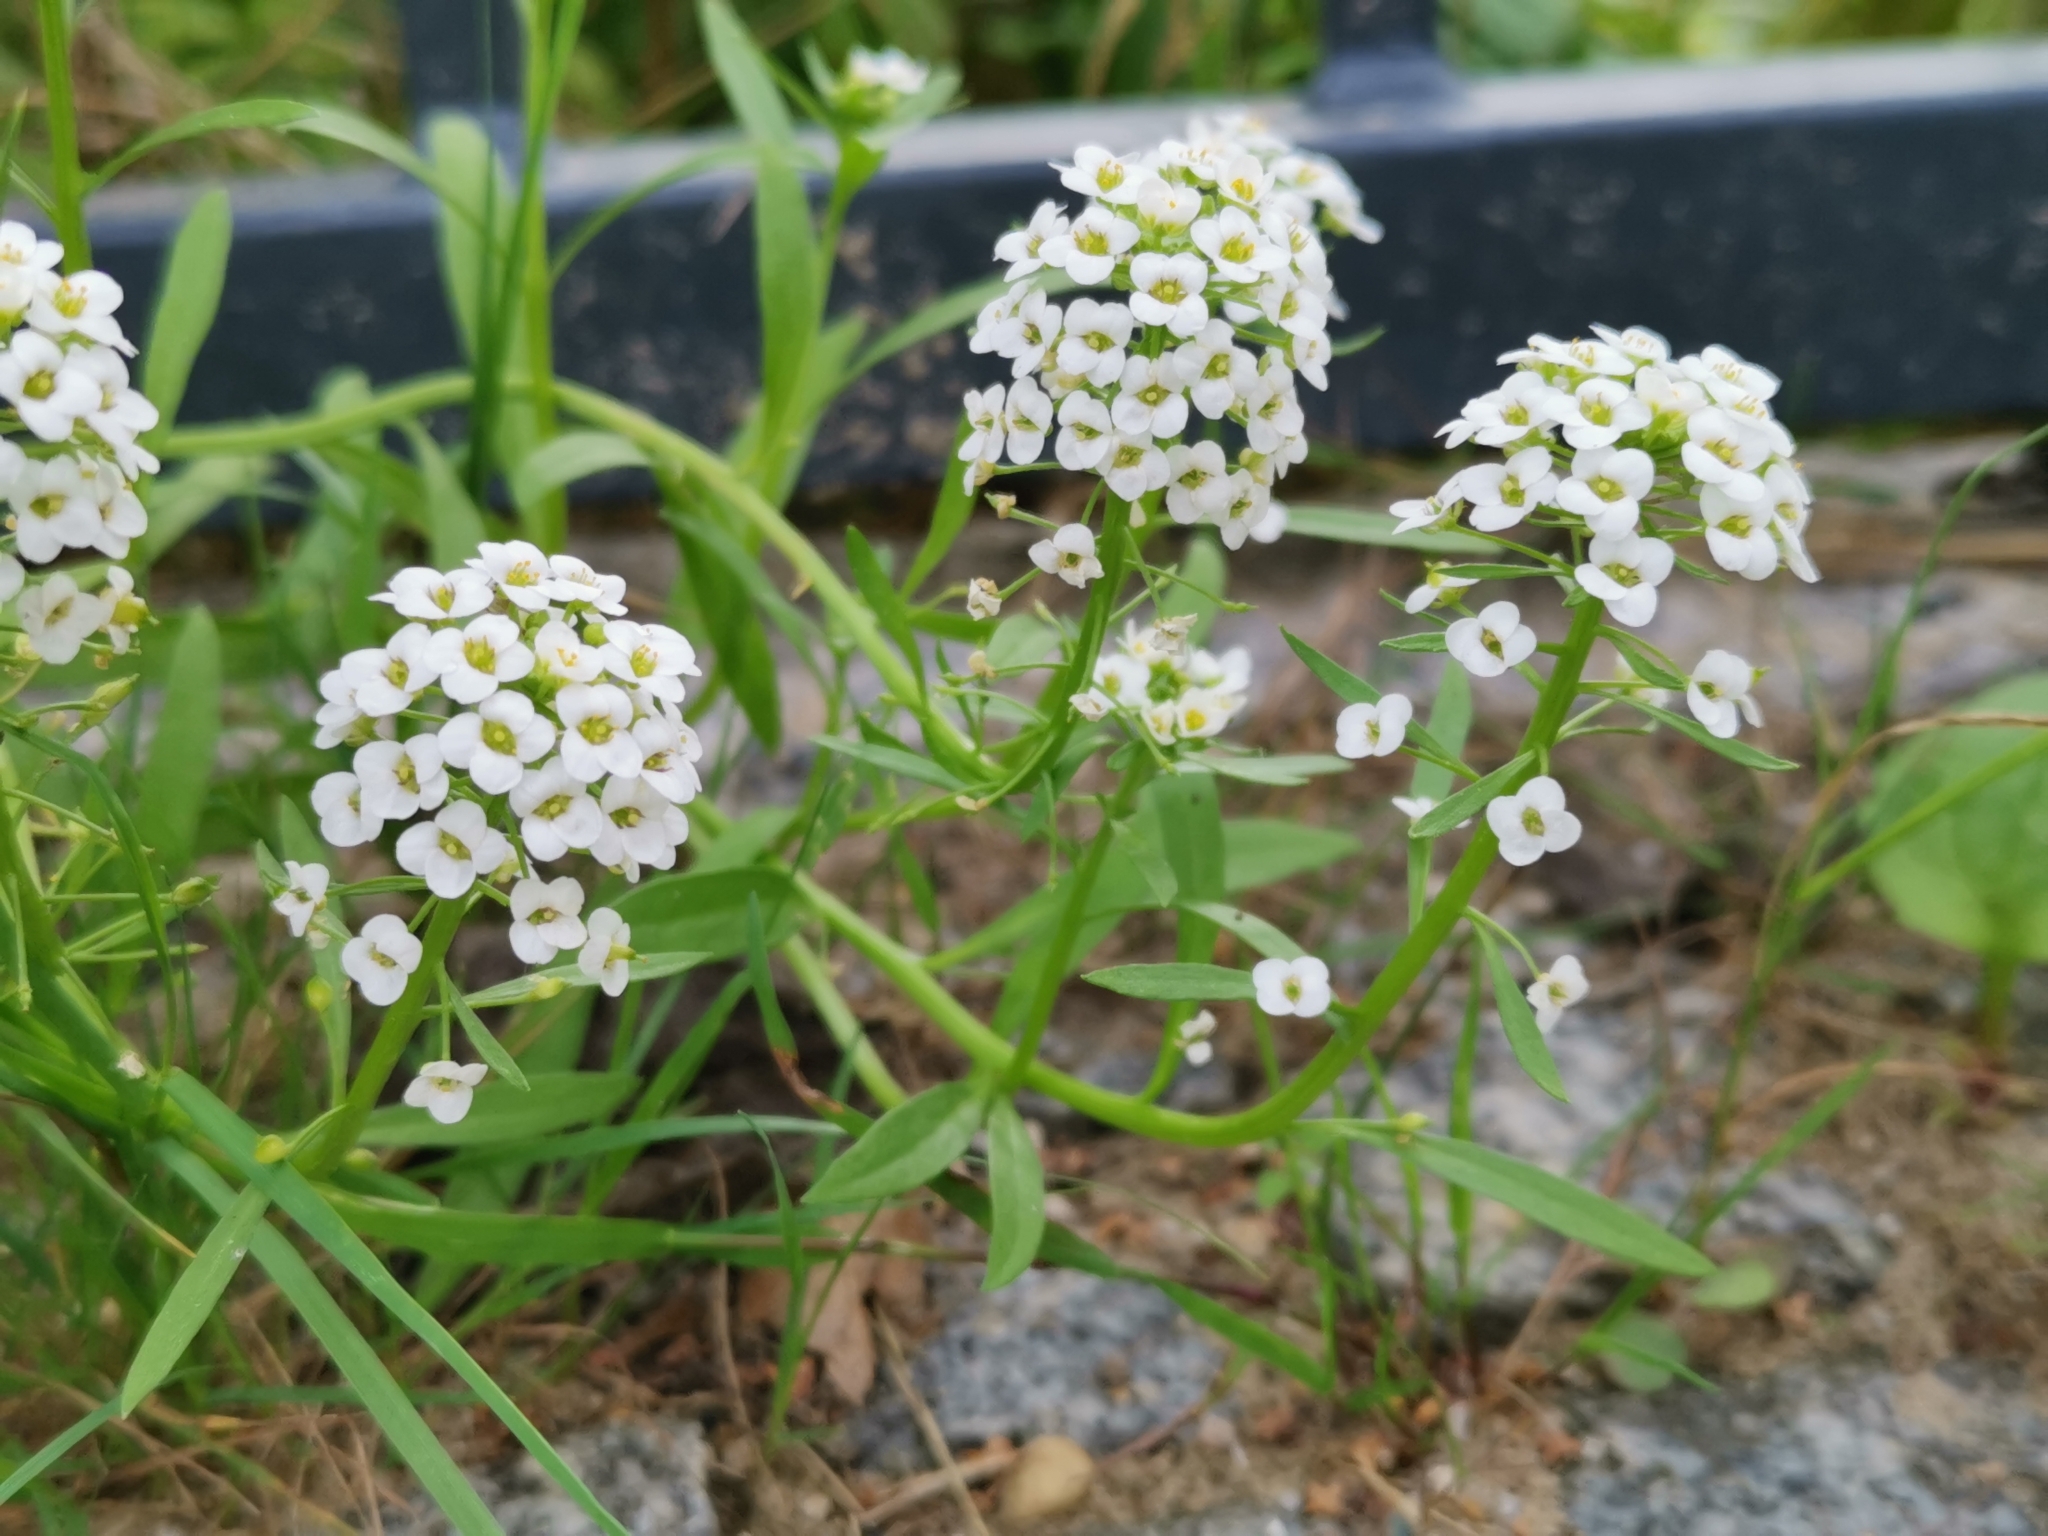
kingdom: Plantae
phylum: Tracheophyta
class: Magnoliopsida
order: Brassicales
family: Brassicaceae
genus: Lobularia
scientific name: Lobularia maritima
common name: Sweet alison
